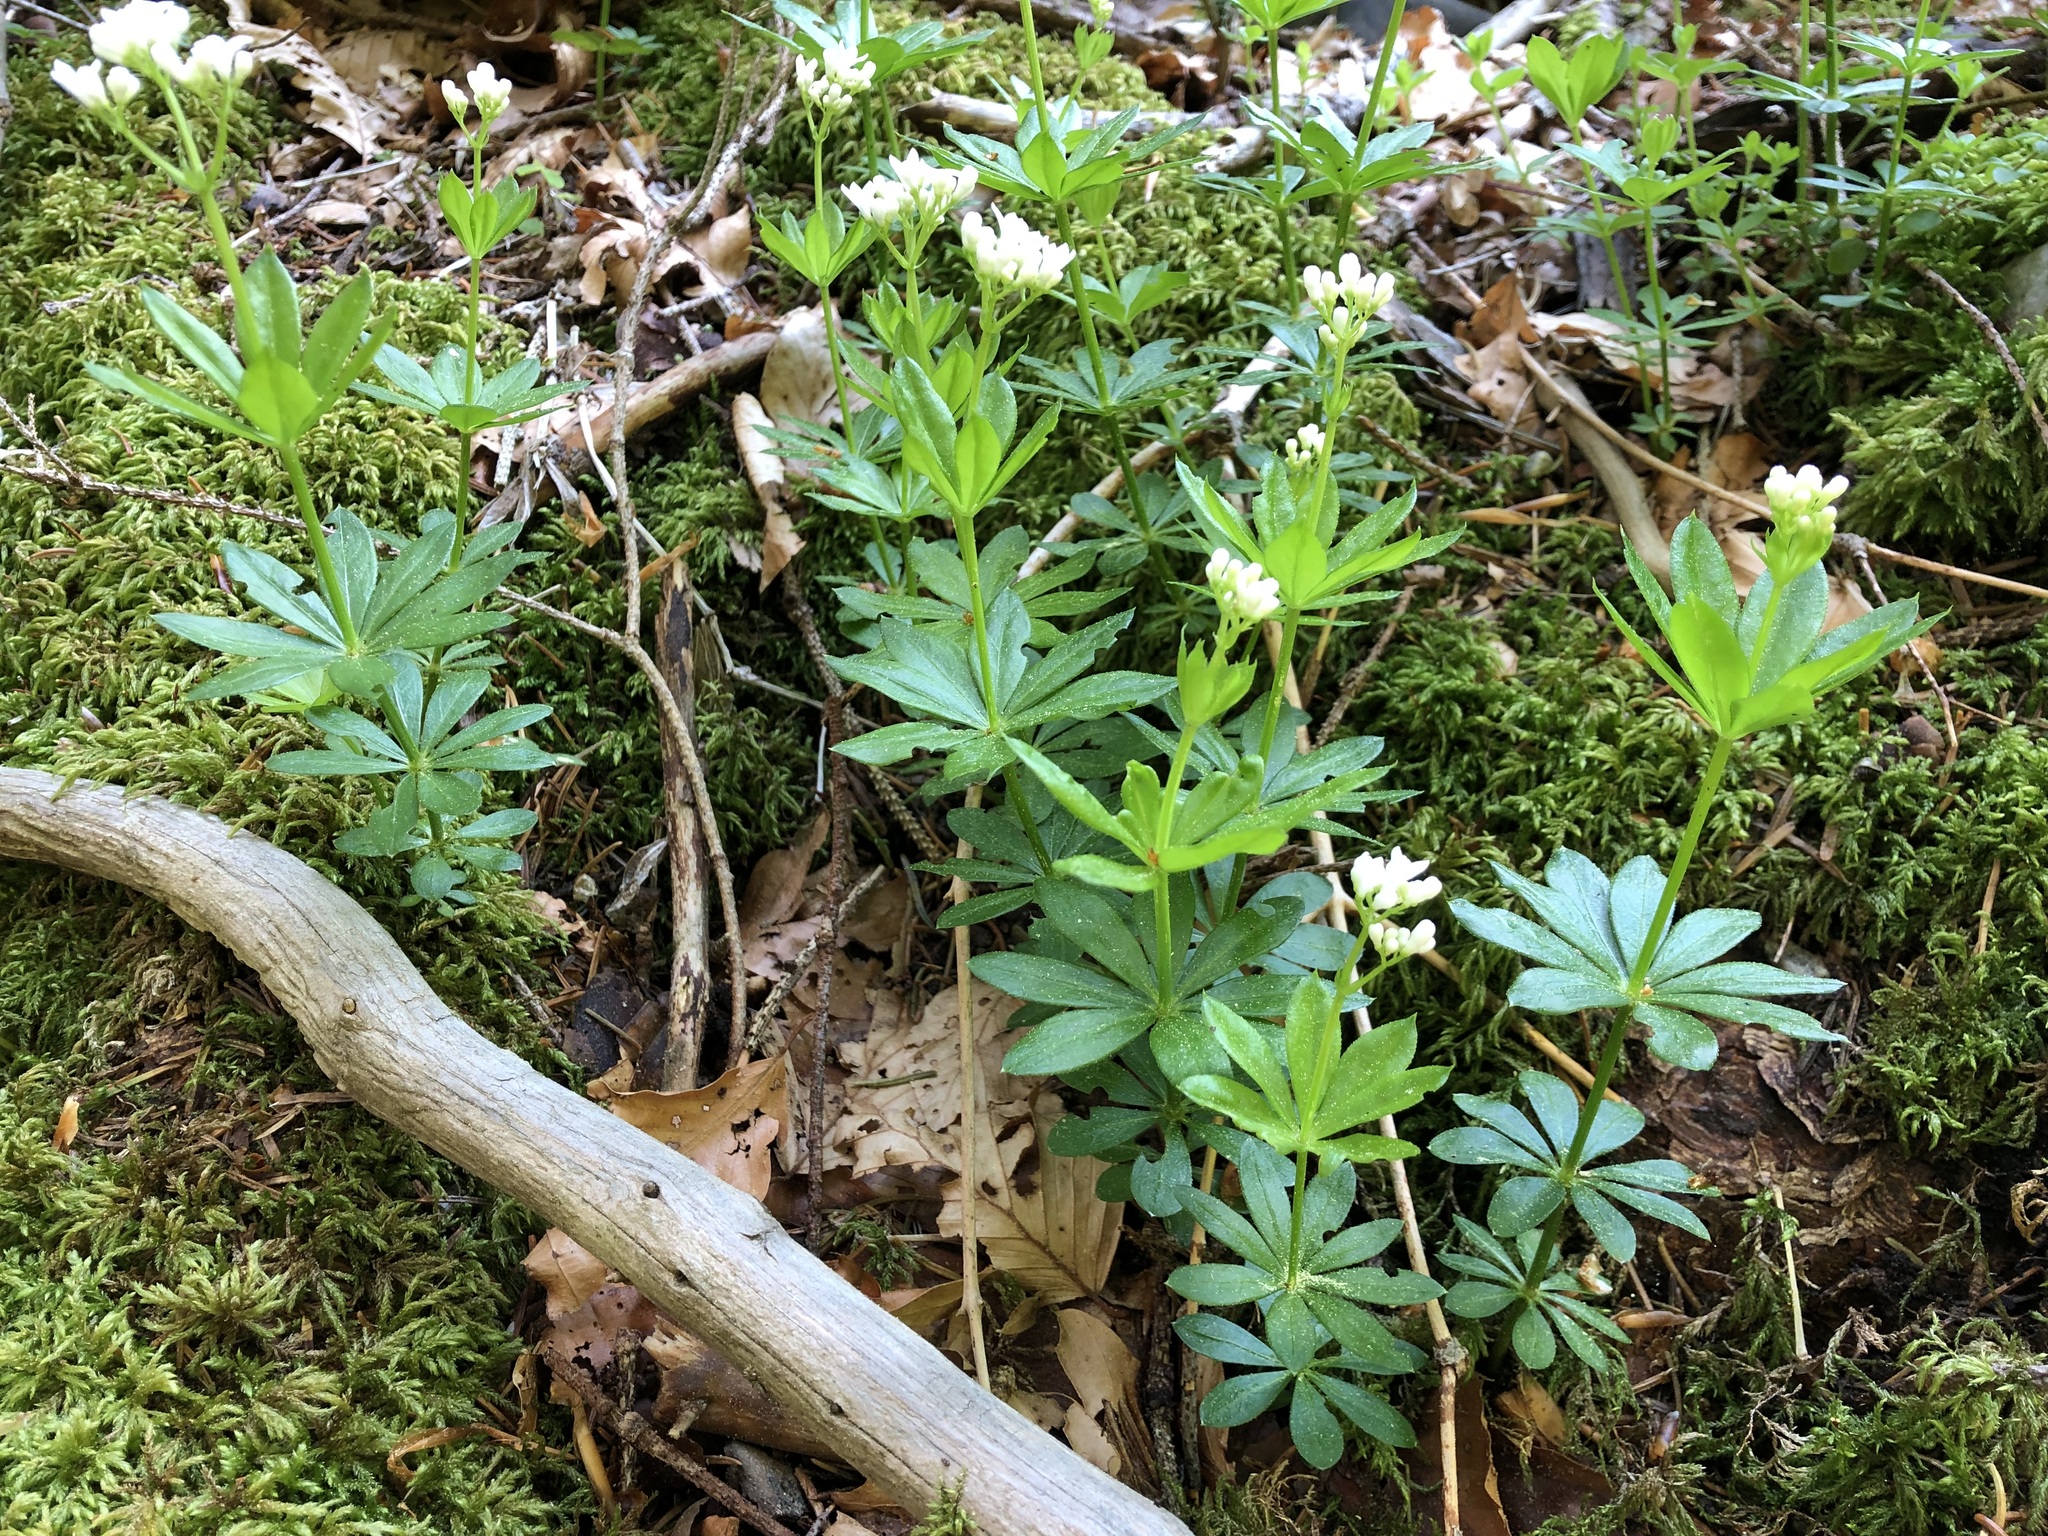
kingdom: Plantae
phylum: Tracheophyta
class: Magnoliopsida
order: Gentianales
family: Rubiaceae
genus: Galium
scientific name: Galium odoratum
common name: Sweet woodruff
